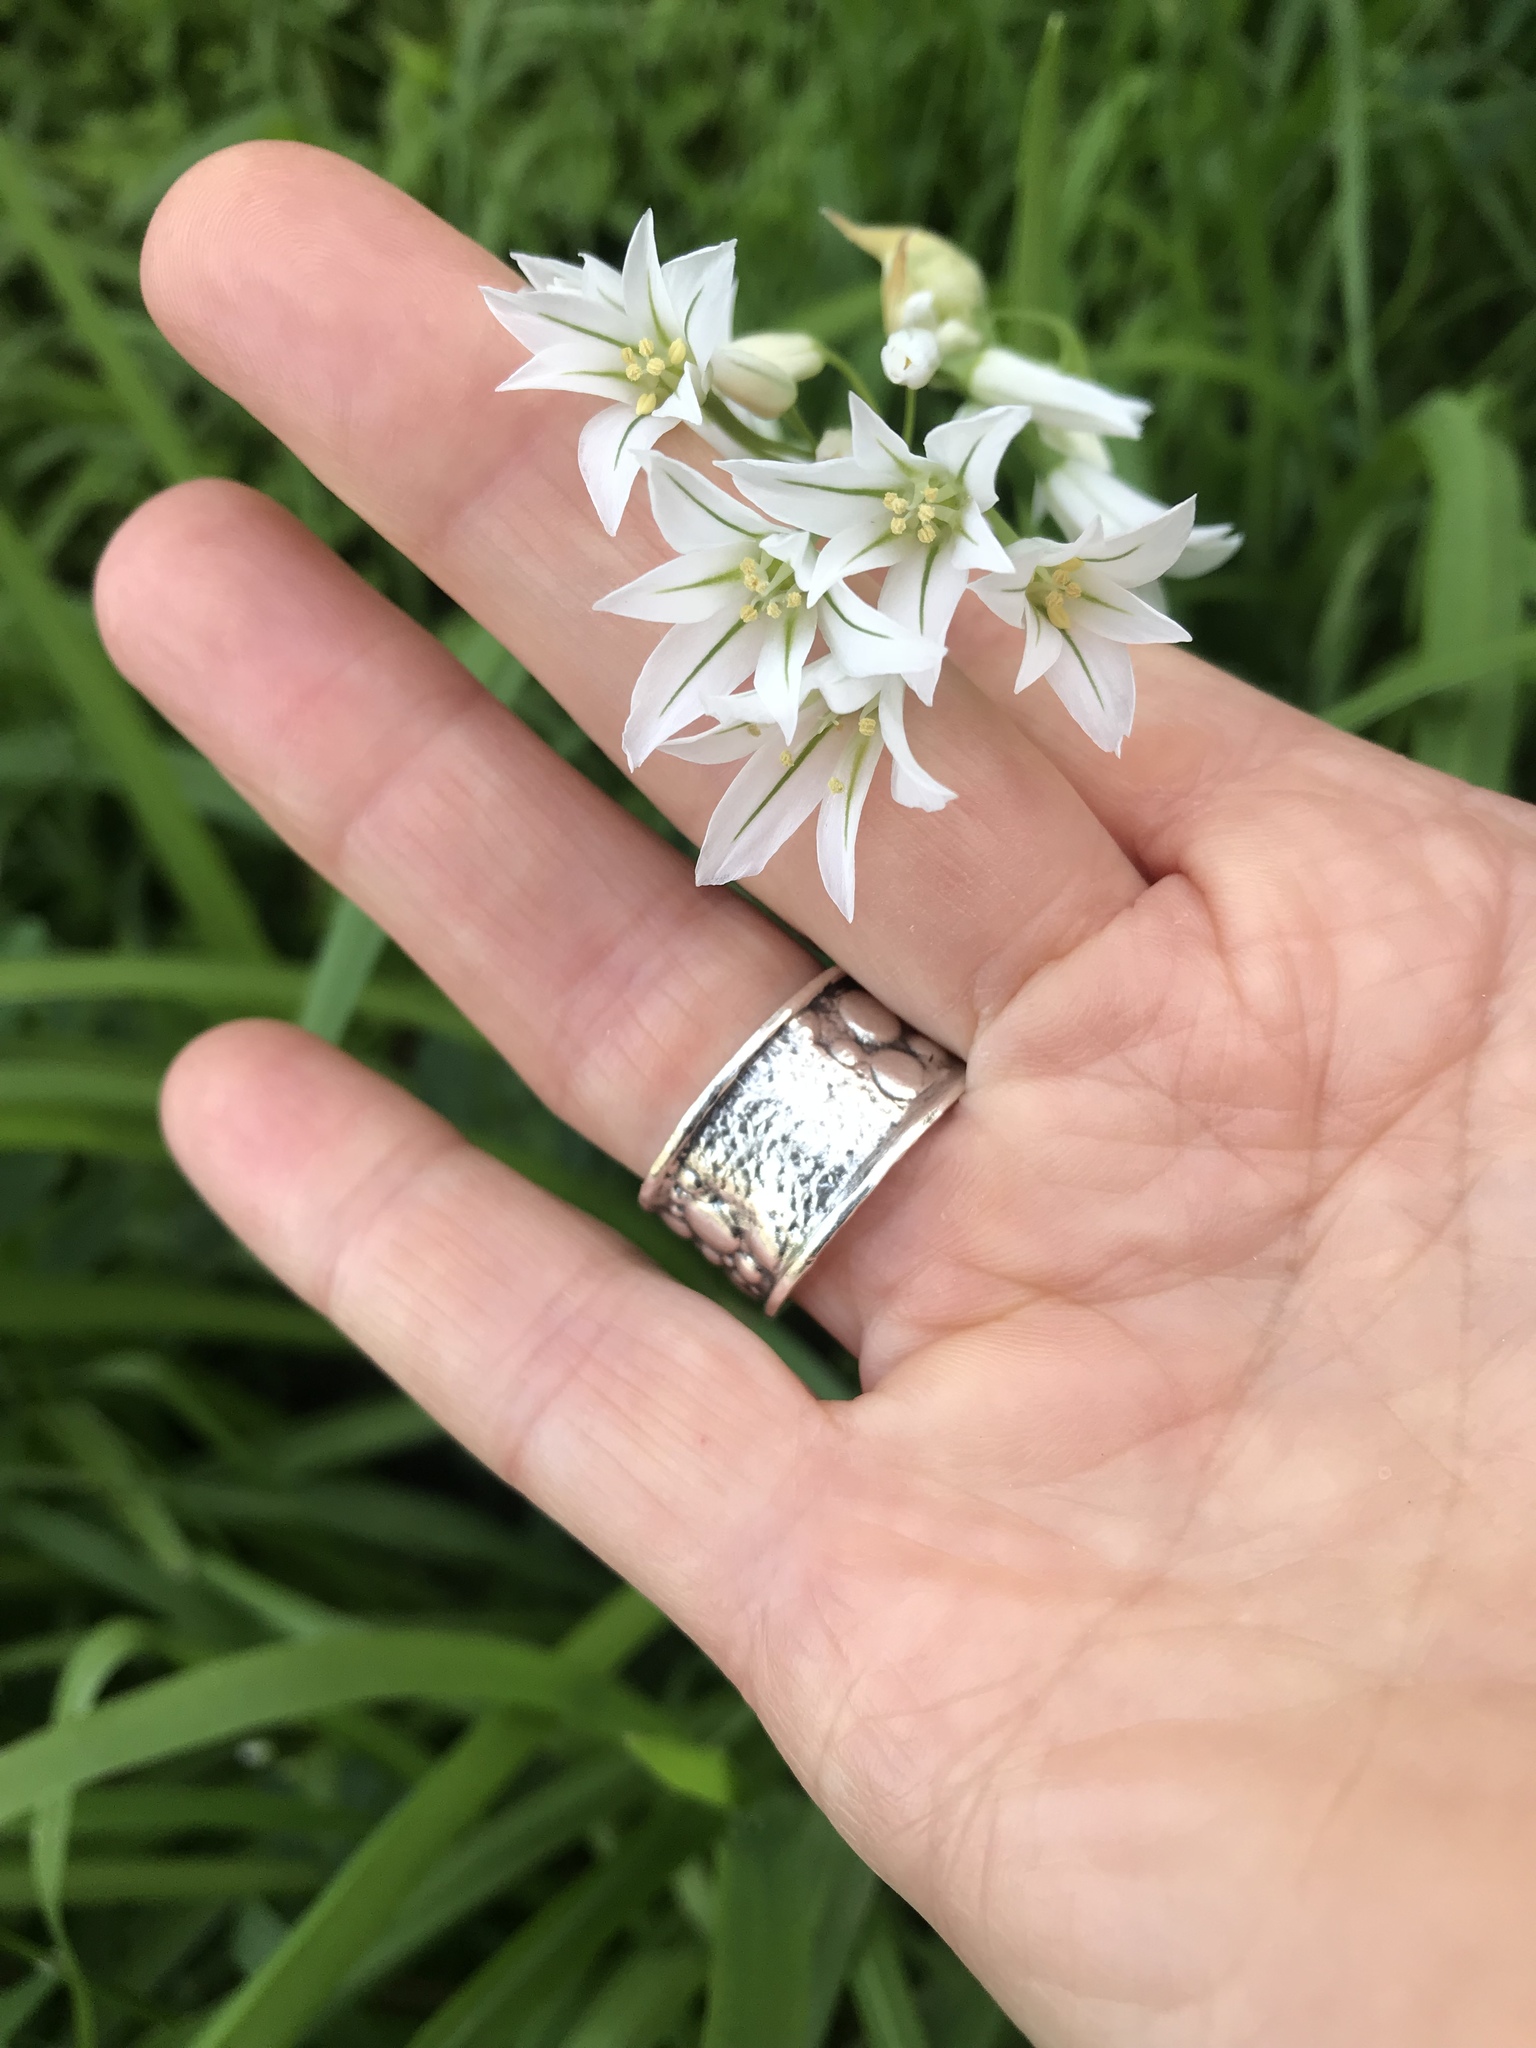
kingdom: Plantae
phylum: Tracheophyta
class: Liliopsida
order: Asparagales
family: Amaryllidaceae
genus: Allium
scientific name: Allium triquetrum
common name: Three-cornered garlic
